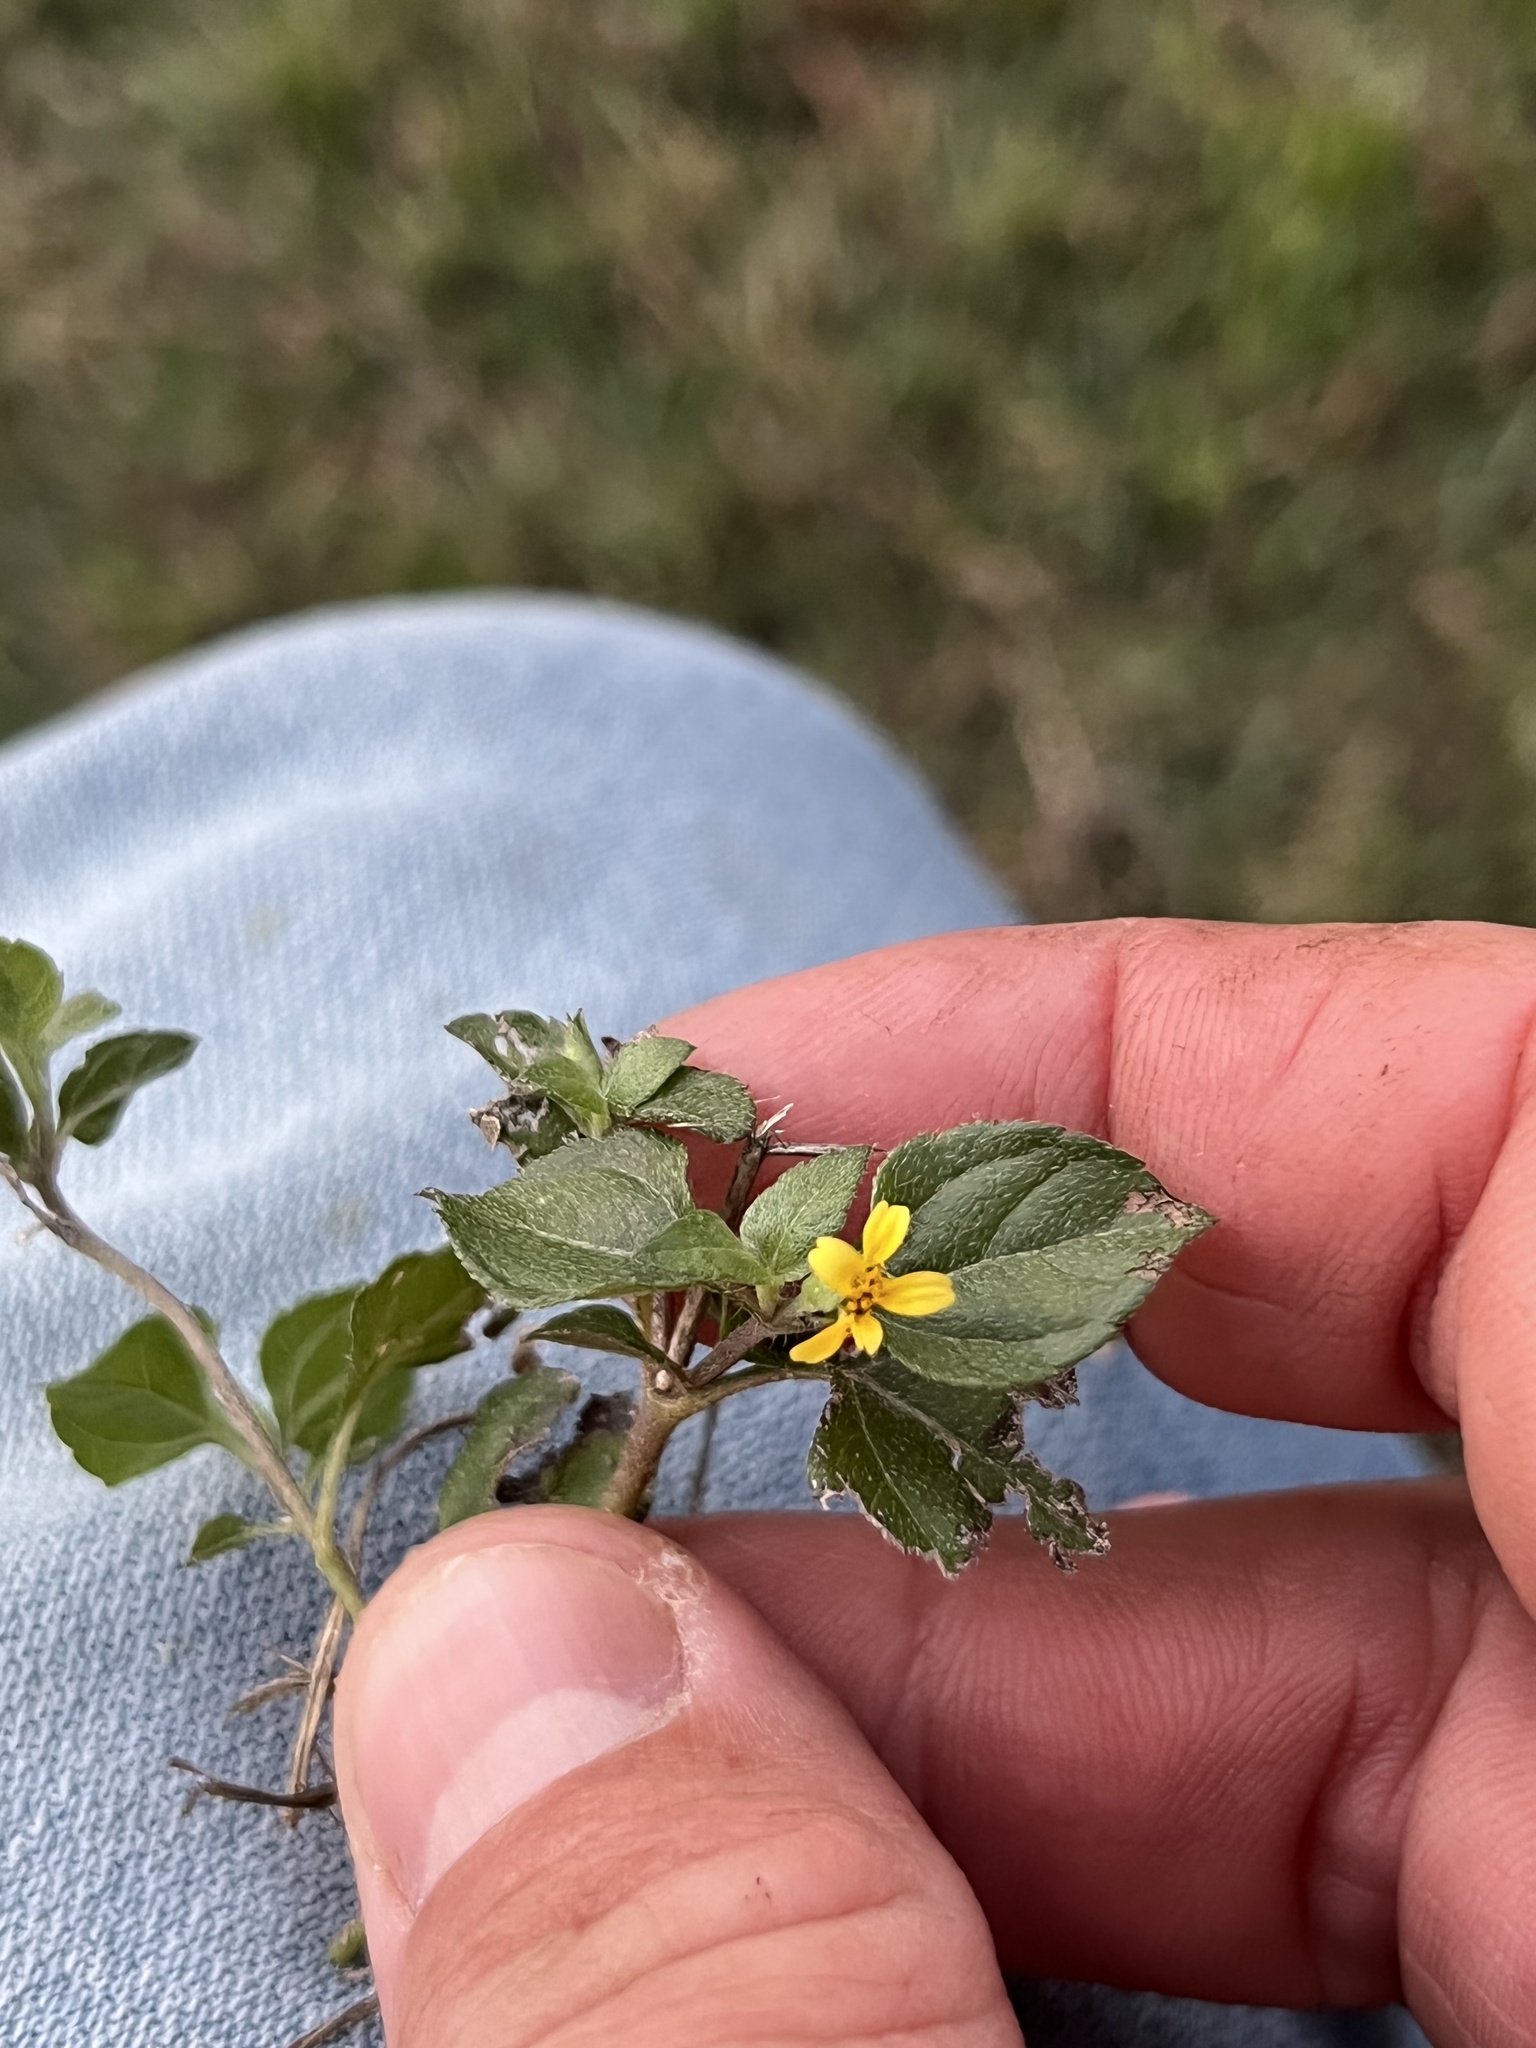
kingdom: Plantae
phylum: Tracheophyta
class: Magnoliopsida
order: Asterales
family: Asteraceae
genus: Calyptocarpus
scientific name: Calyptocarpus vialis
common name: Straggler daisy
